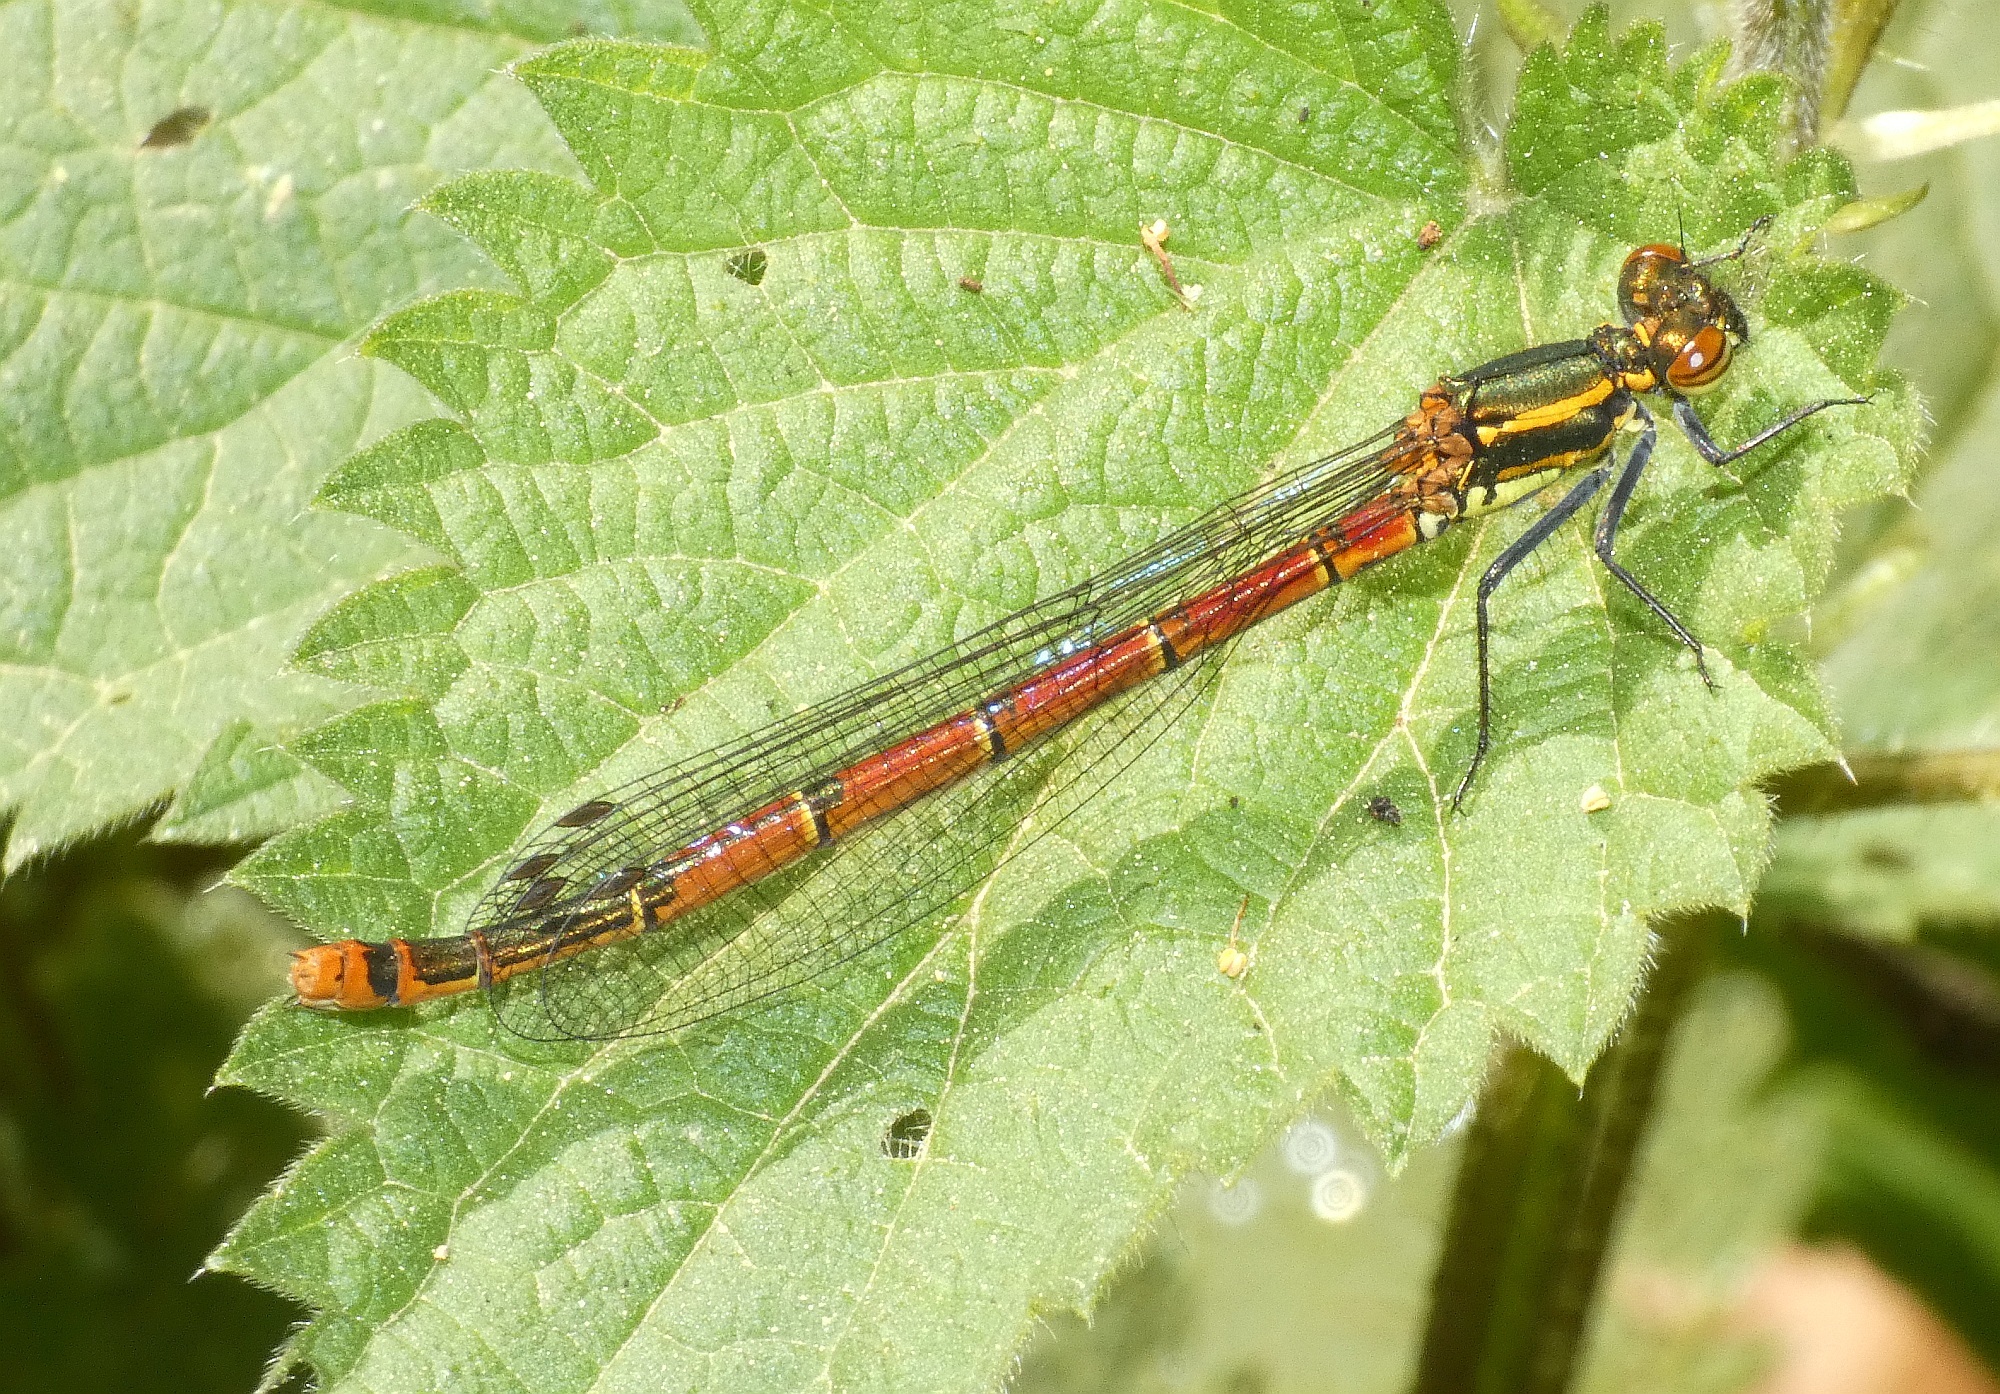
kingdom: Animalia
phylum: Arthropoda
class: Insecta
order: Odonata
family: Coenagrionidae
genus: Pyrrhosoma
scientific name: Pyrrhosoma nymphula
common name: Large red damsel
